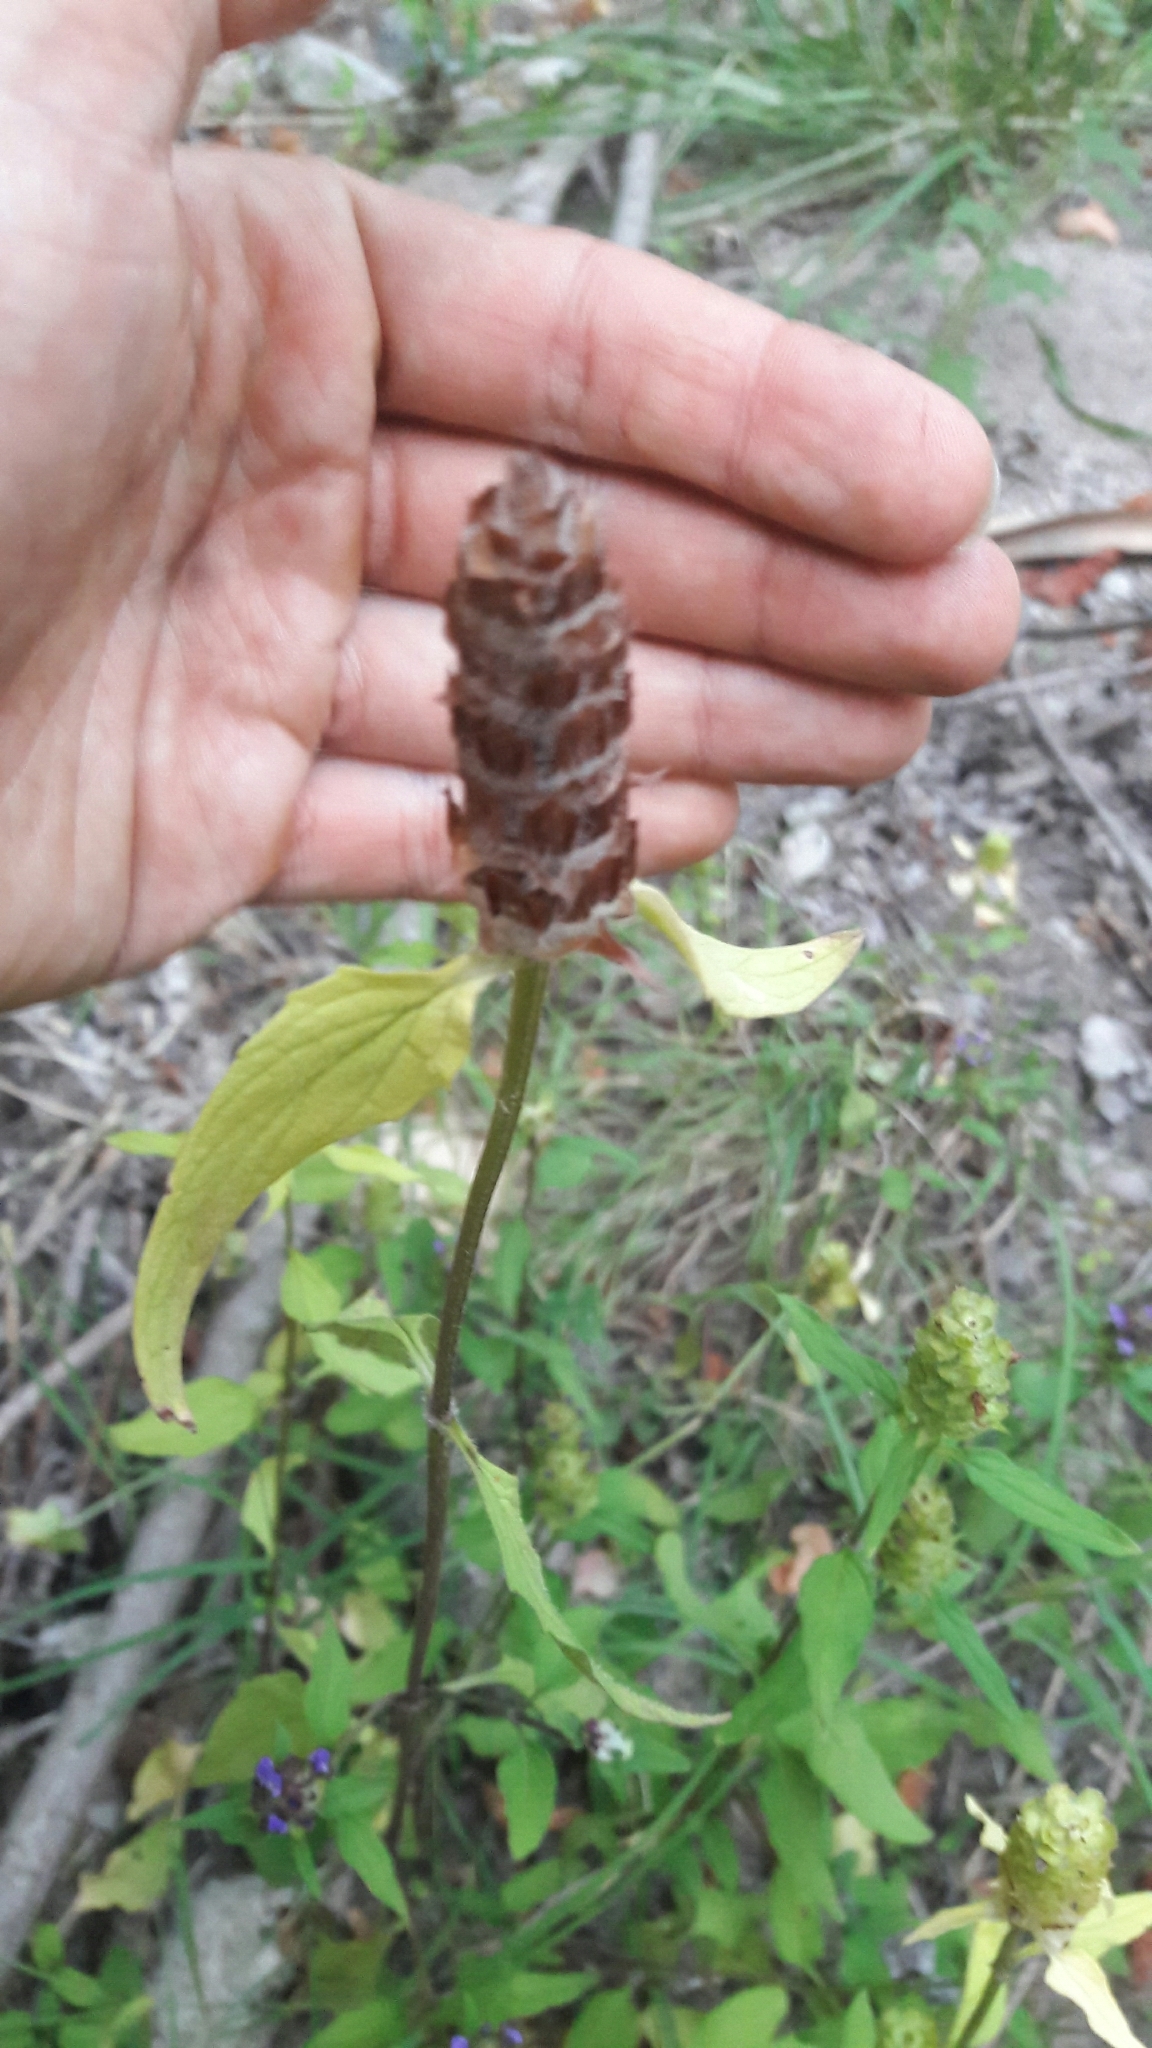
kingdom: Plantae
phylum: Tracheophyta
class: Magnoliopsida
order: Lamiales
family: Lamiaceae
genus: Prunella
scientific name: Prunella vulgaris
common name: Heal-all
